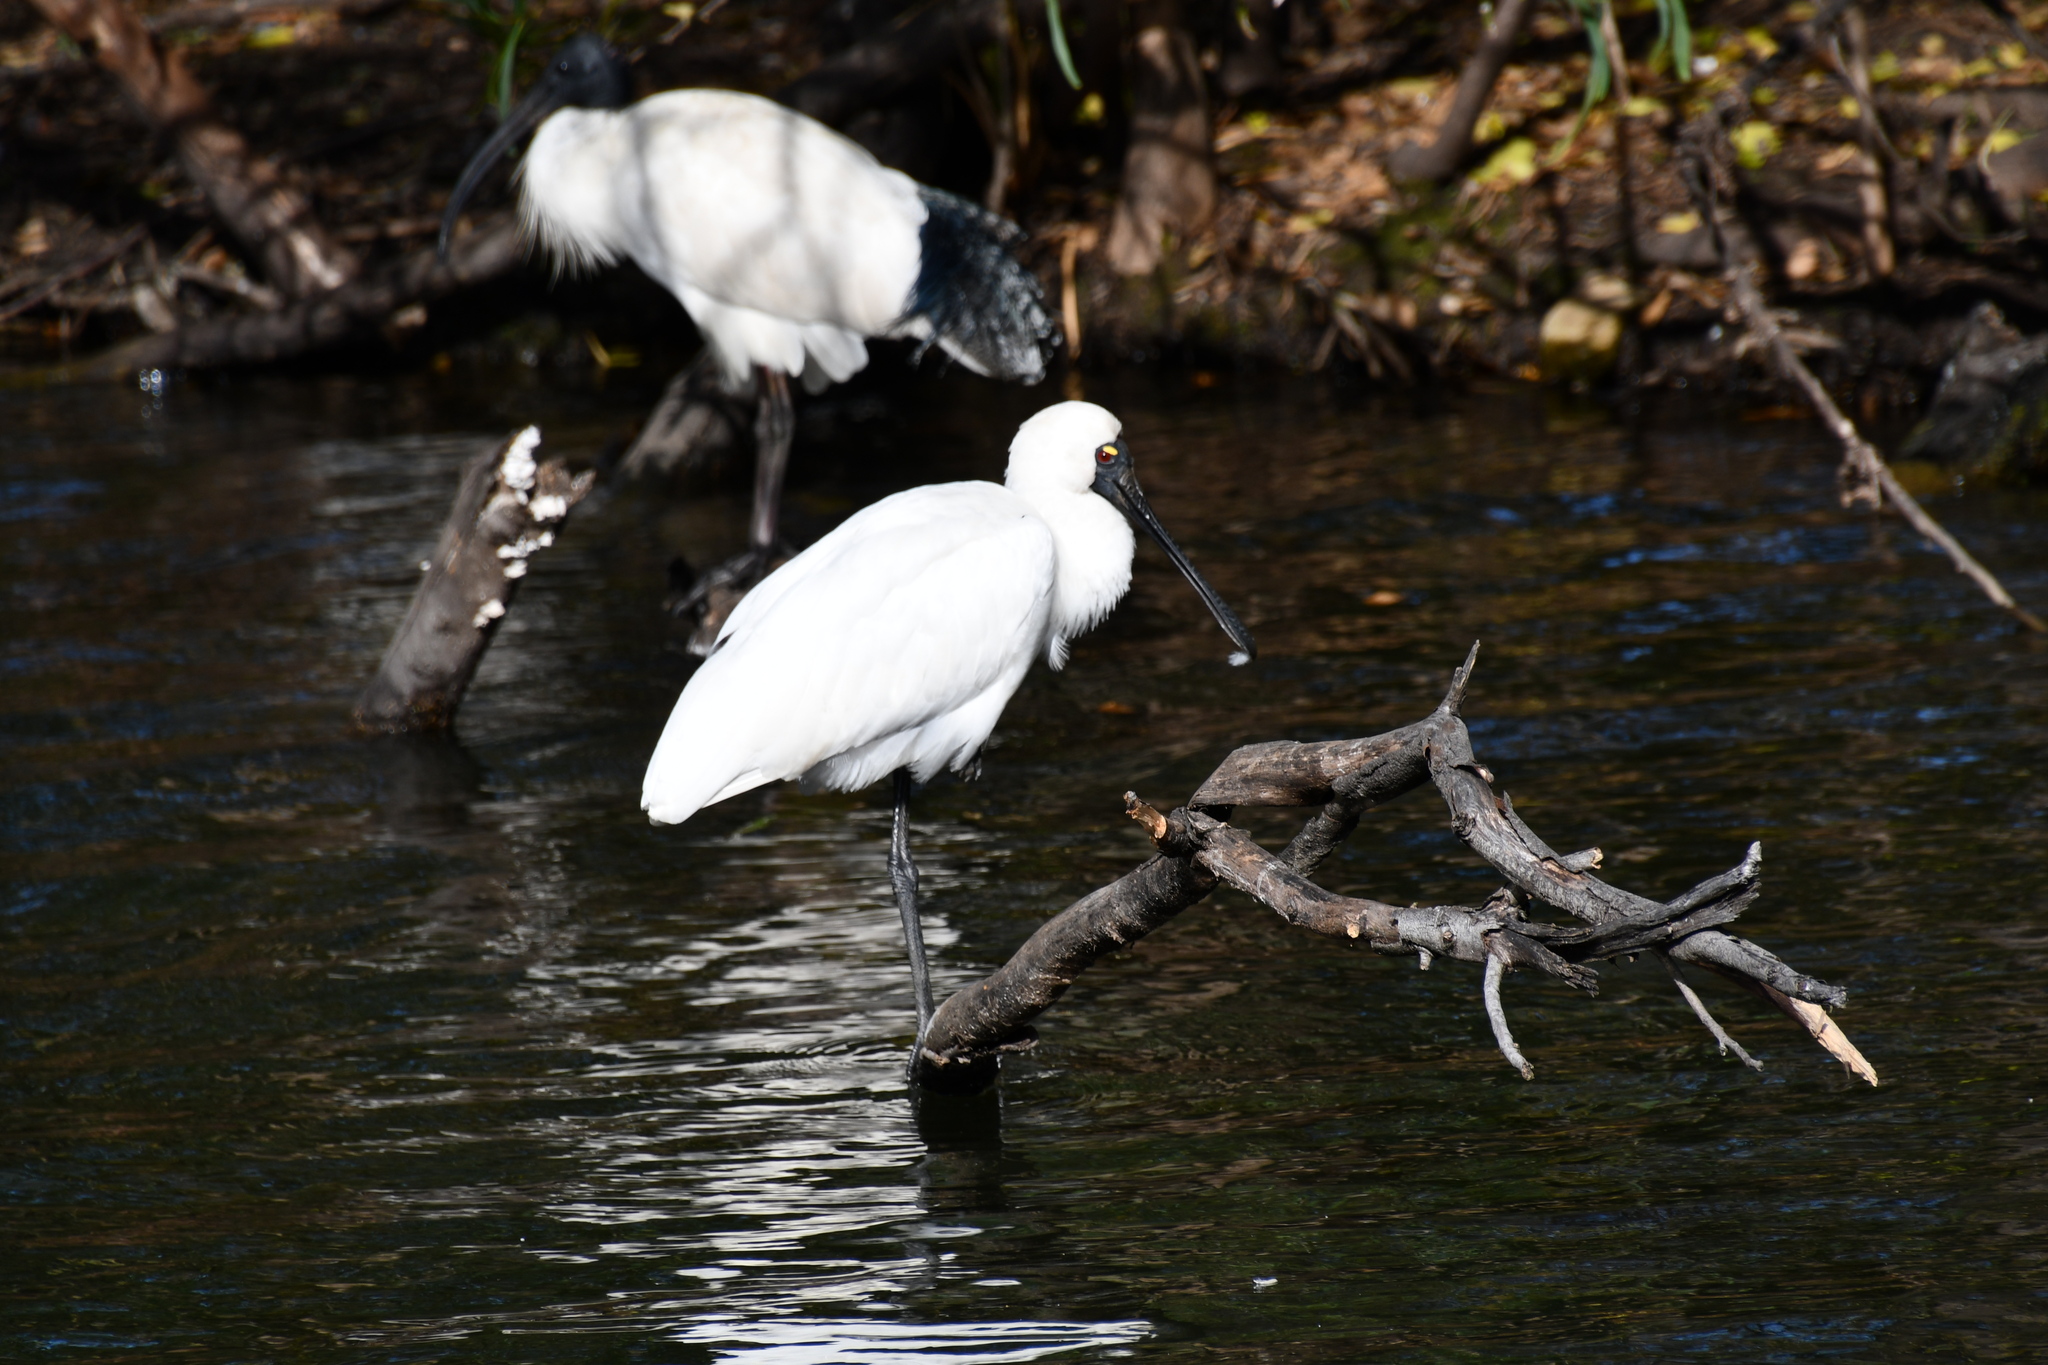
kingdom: Animalia
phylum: Chordata
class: Aves
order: Pelecaniformes
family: Threskiornithidae
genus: Platalea
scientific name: Platalea regia
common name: Royal spoonbill
